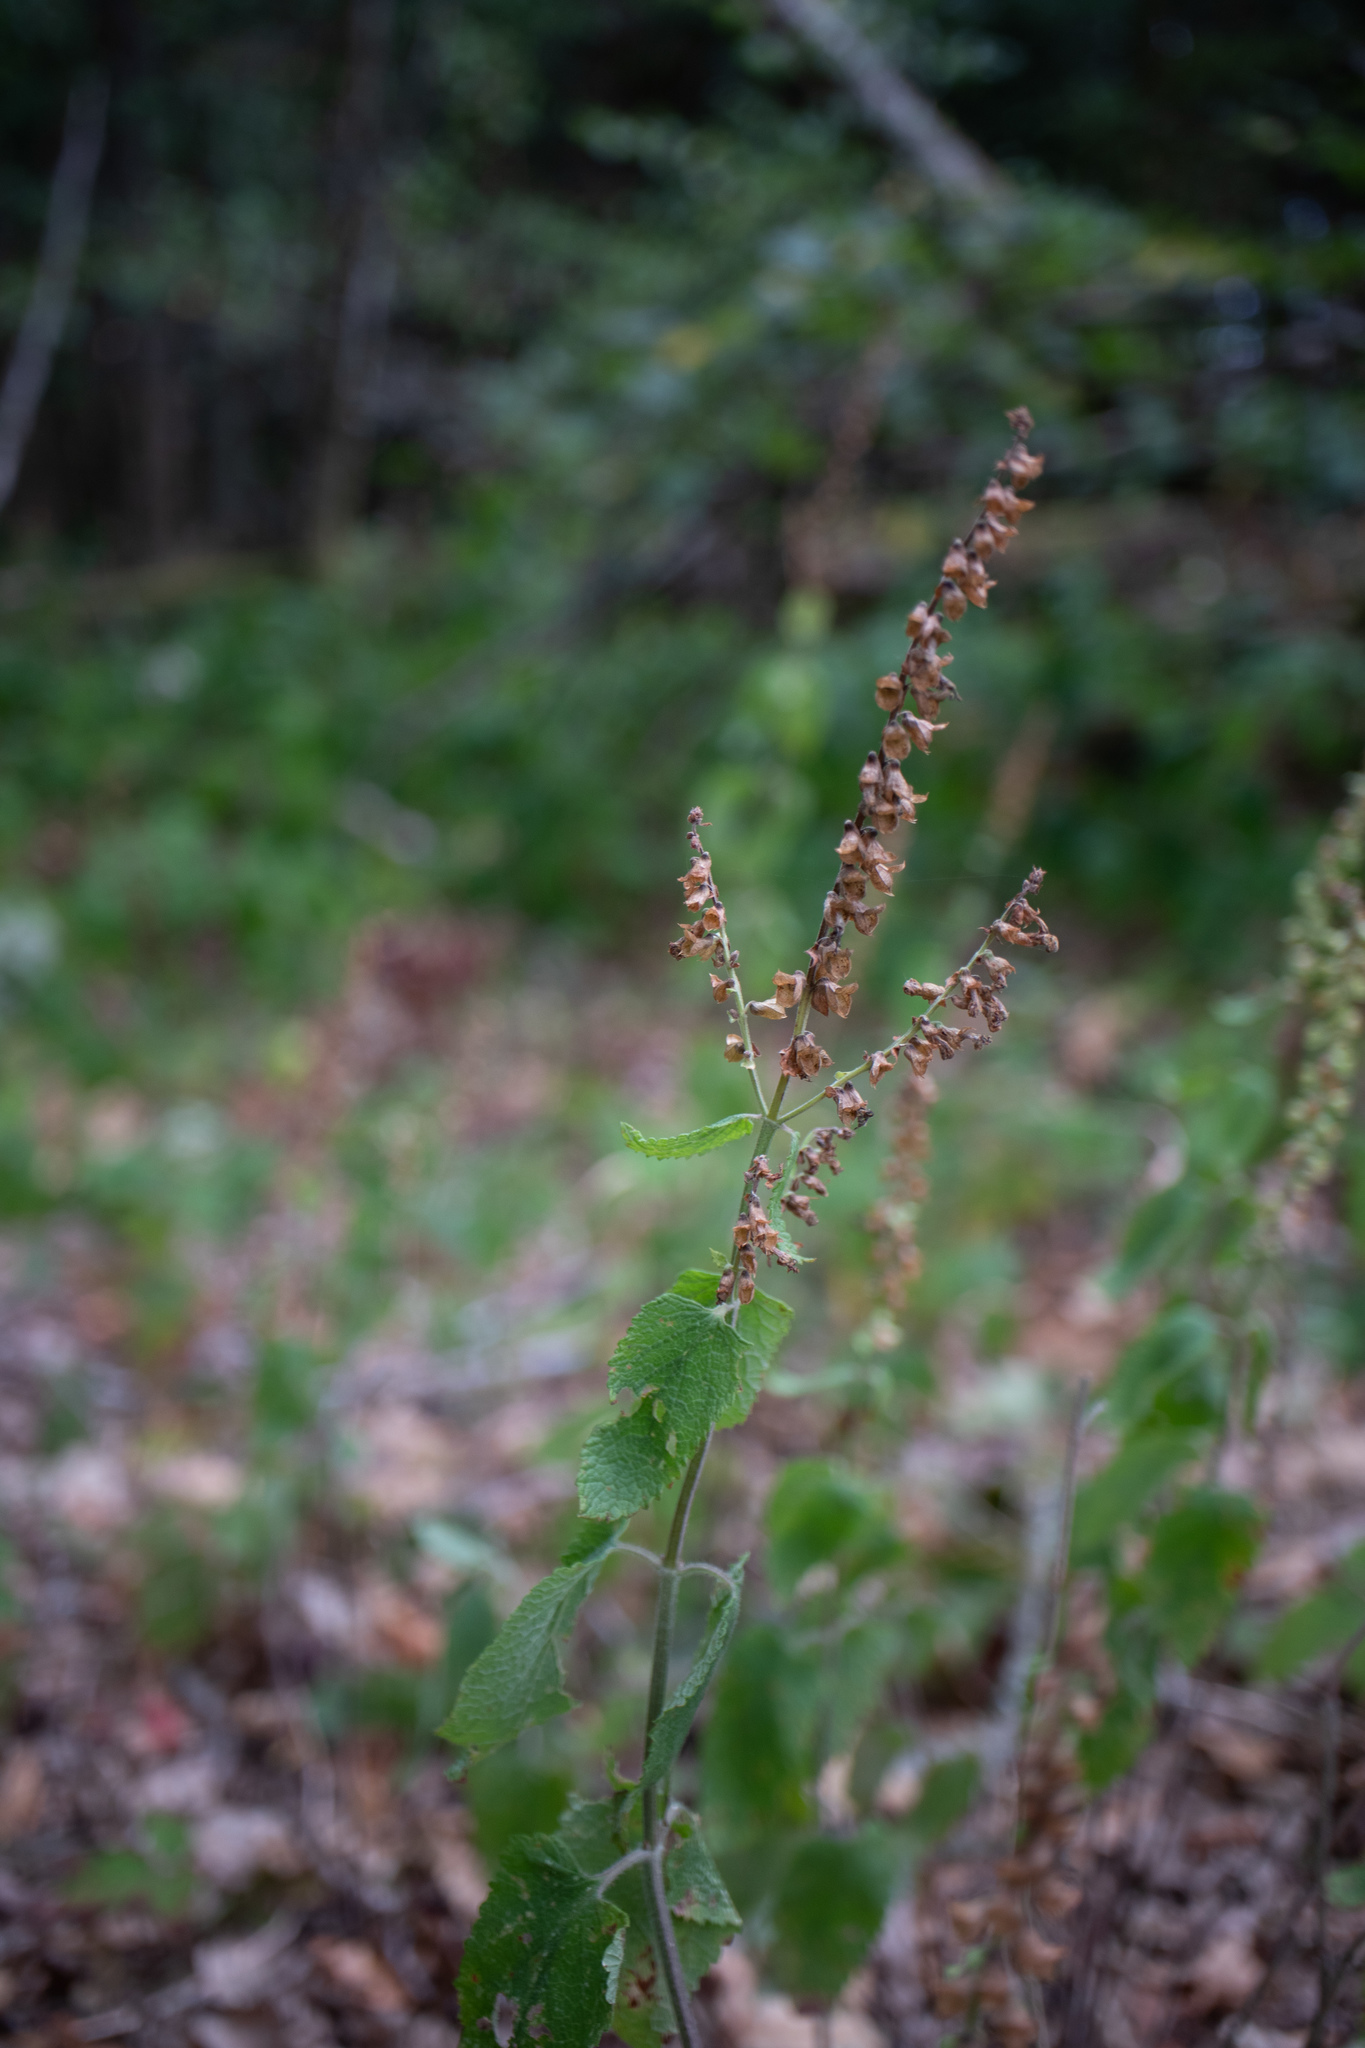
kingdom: Plantae
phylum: Tracheophyta
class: Magnoliopsida
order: Lamiales
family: Lamiaceae
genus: Teucrium
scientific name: Teucrium scorodonia
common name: Woodland germander
